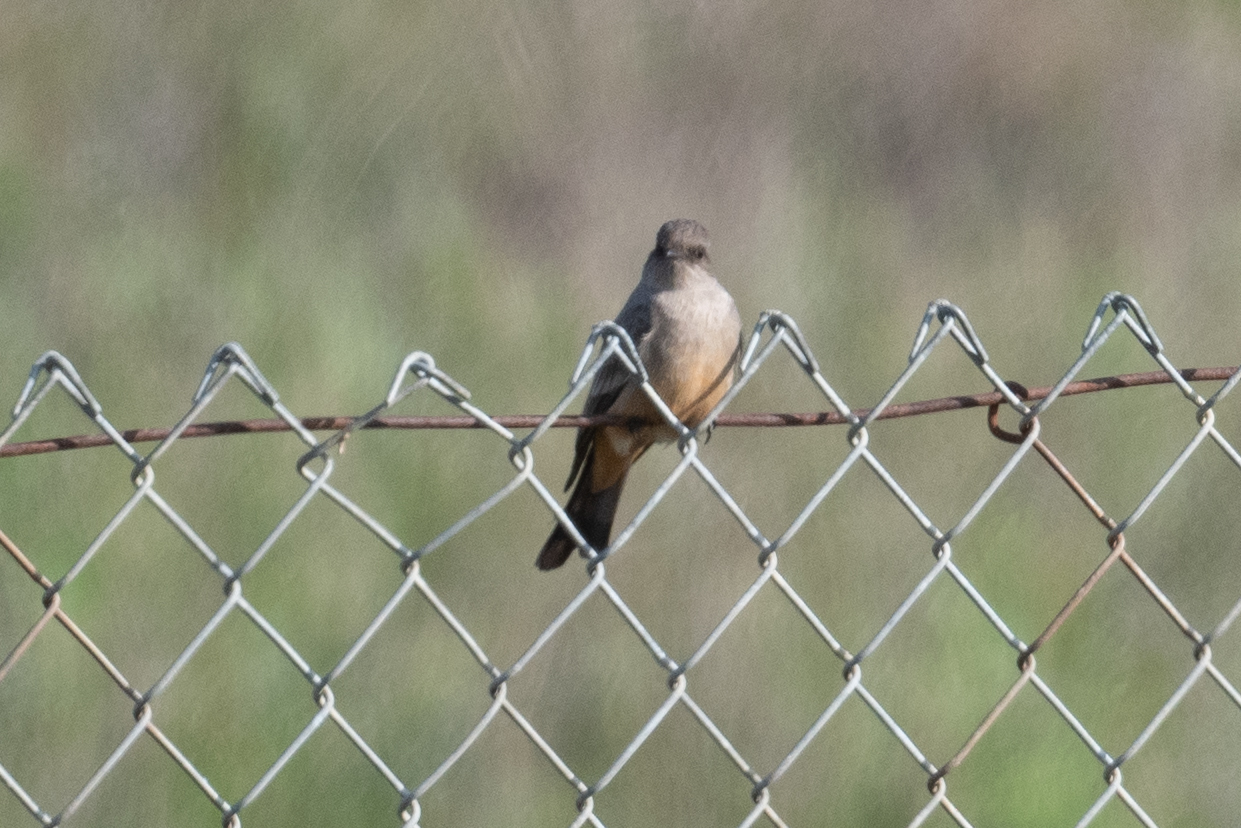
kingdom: Animalia
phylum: Chordata
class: Aves
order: Passeriformes
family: Tyrannidae
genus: Sayornis
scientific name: Sayornis saya
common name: Say's phoebe
